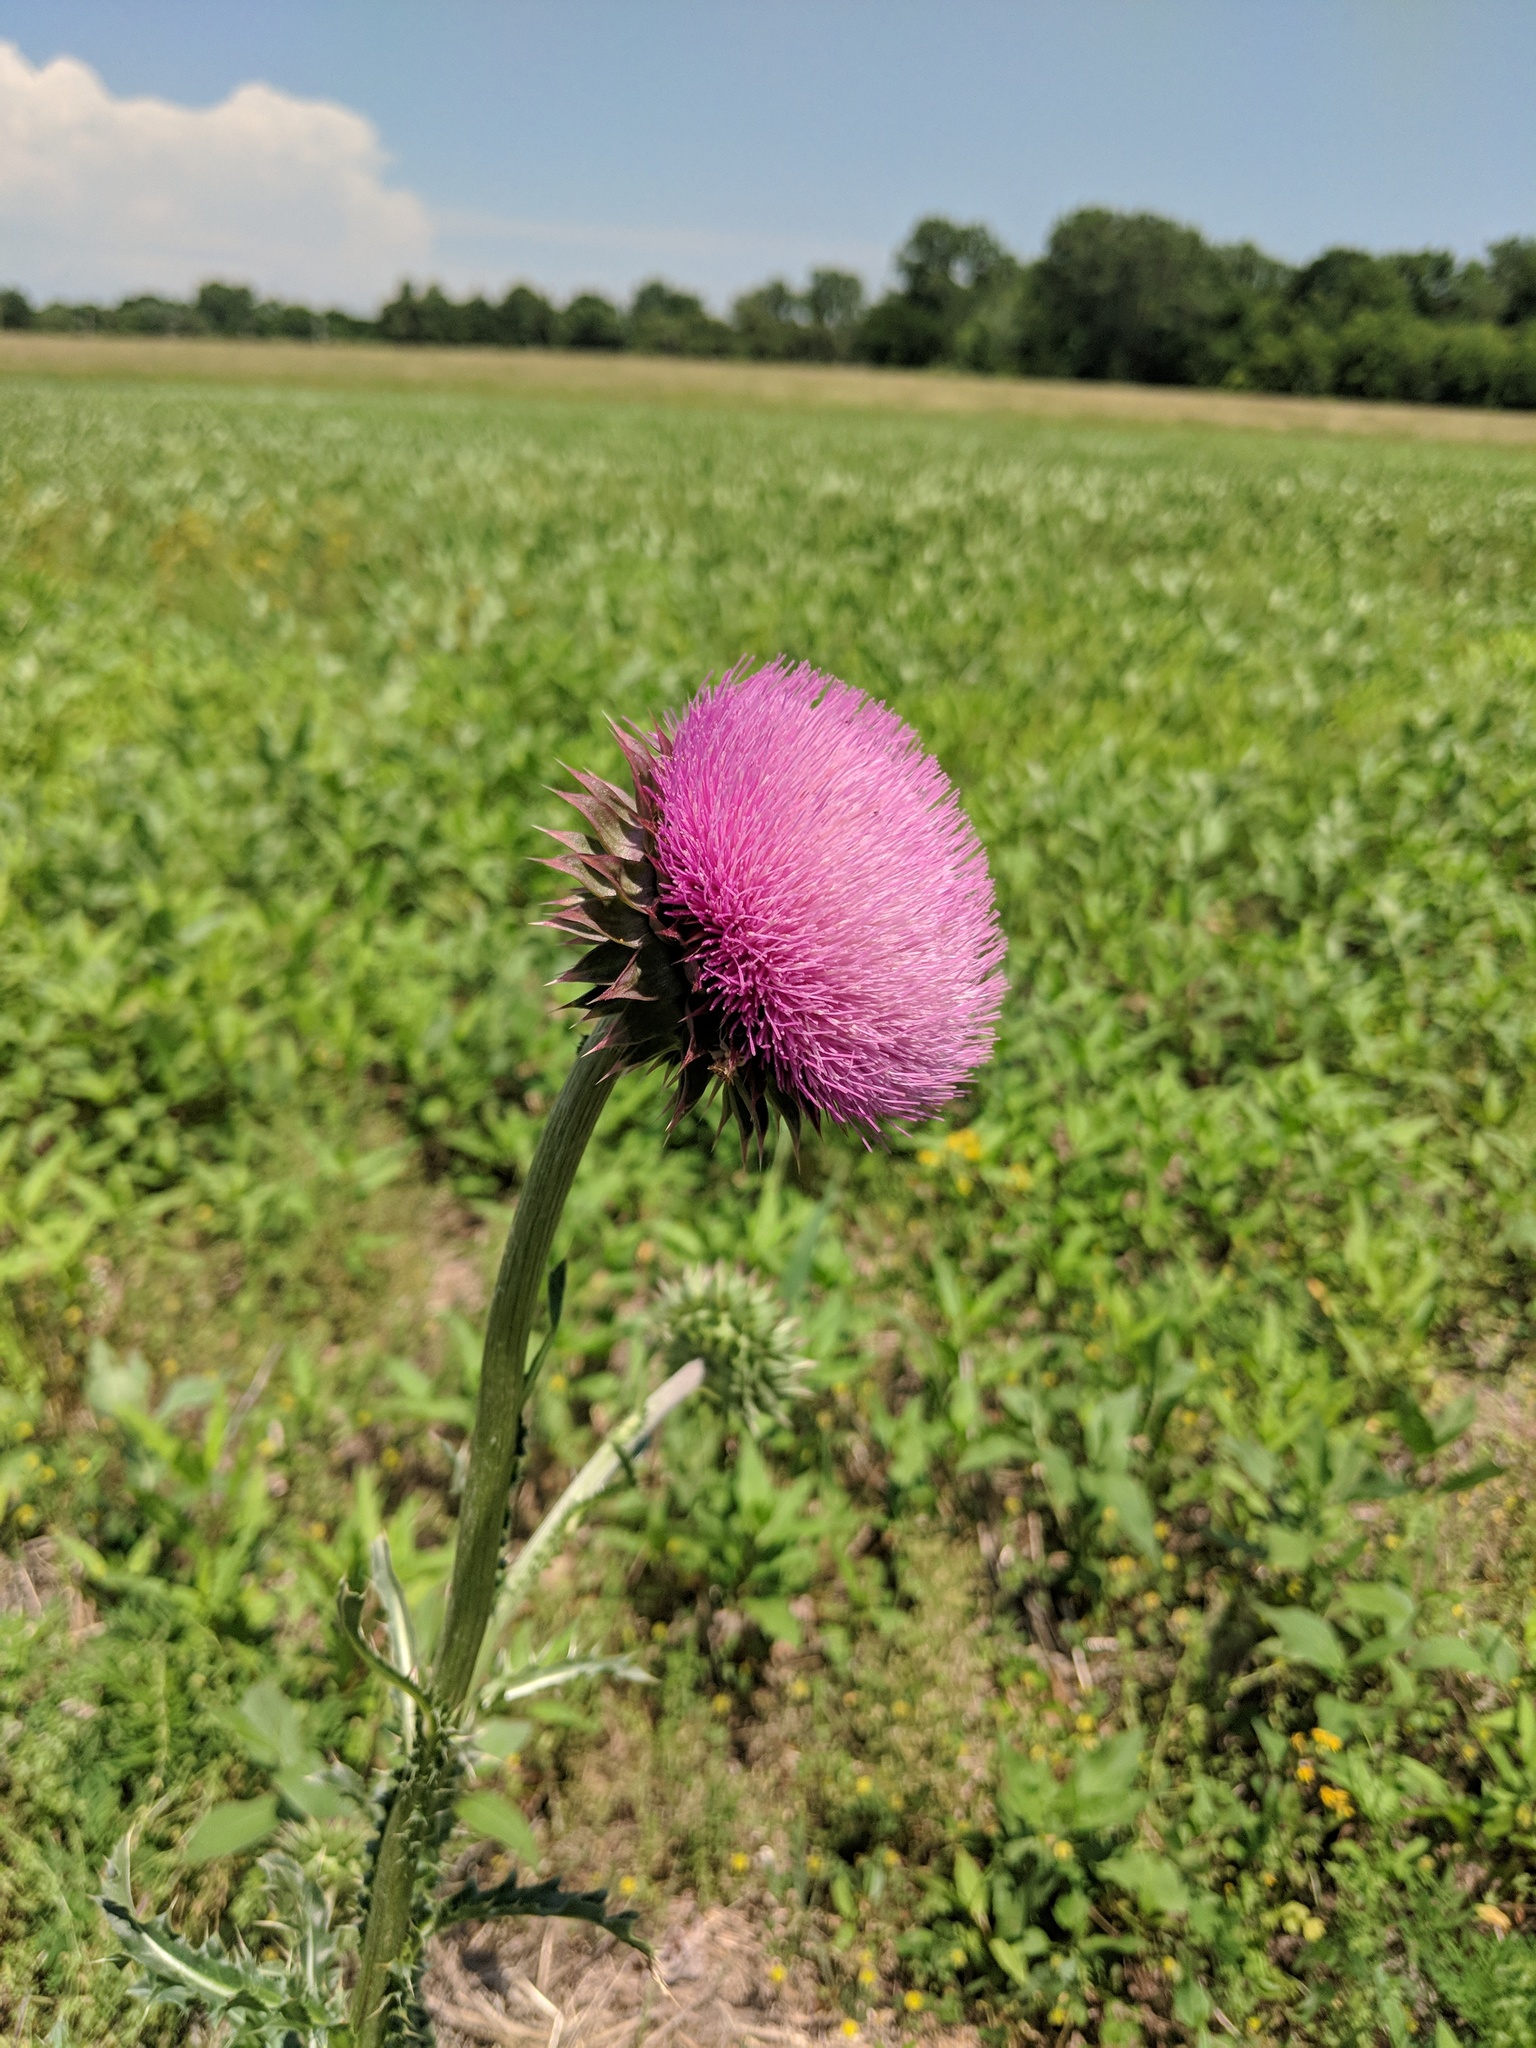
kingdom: Plantae
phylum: Tracheophyta
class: Magnoliopsida
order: Asterales
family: Asteraceae
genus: Carduus
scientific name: Carduus nutans
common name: Musk thistle
